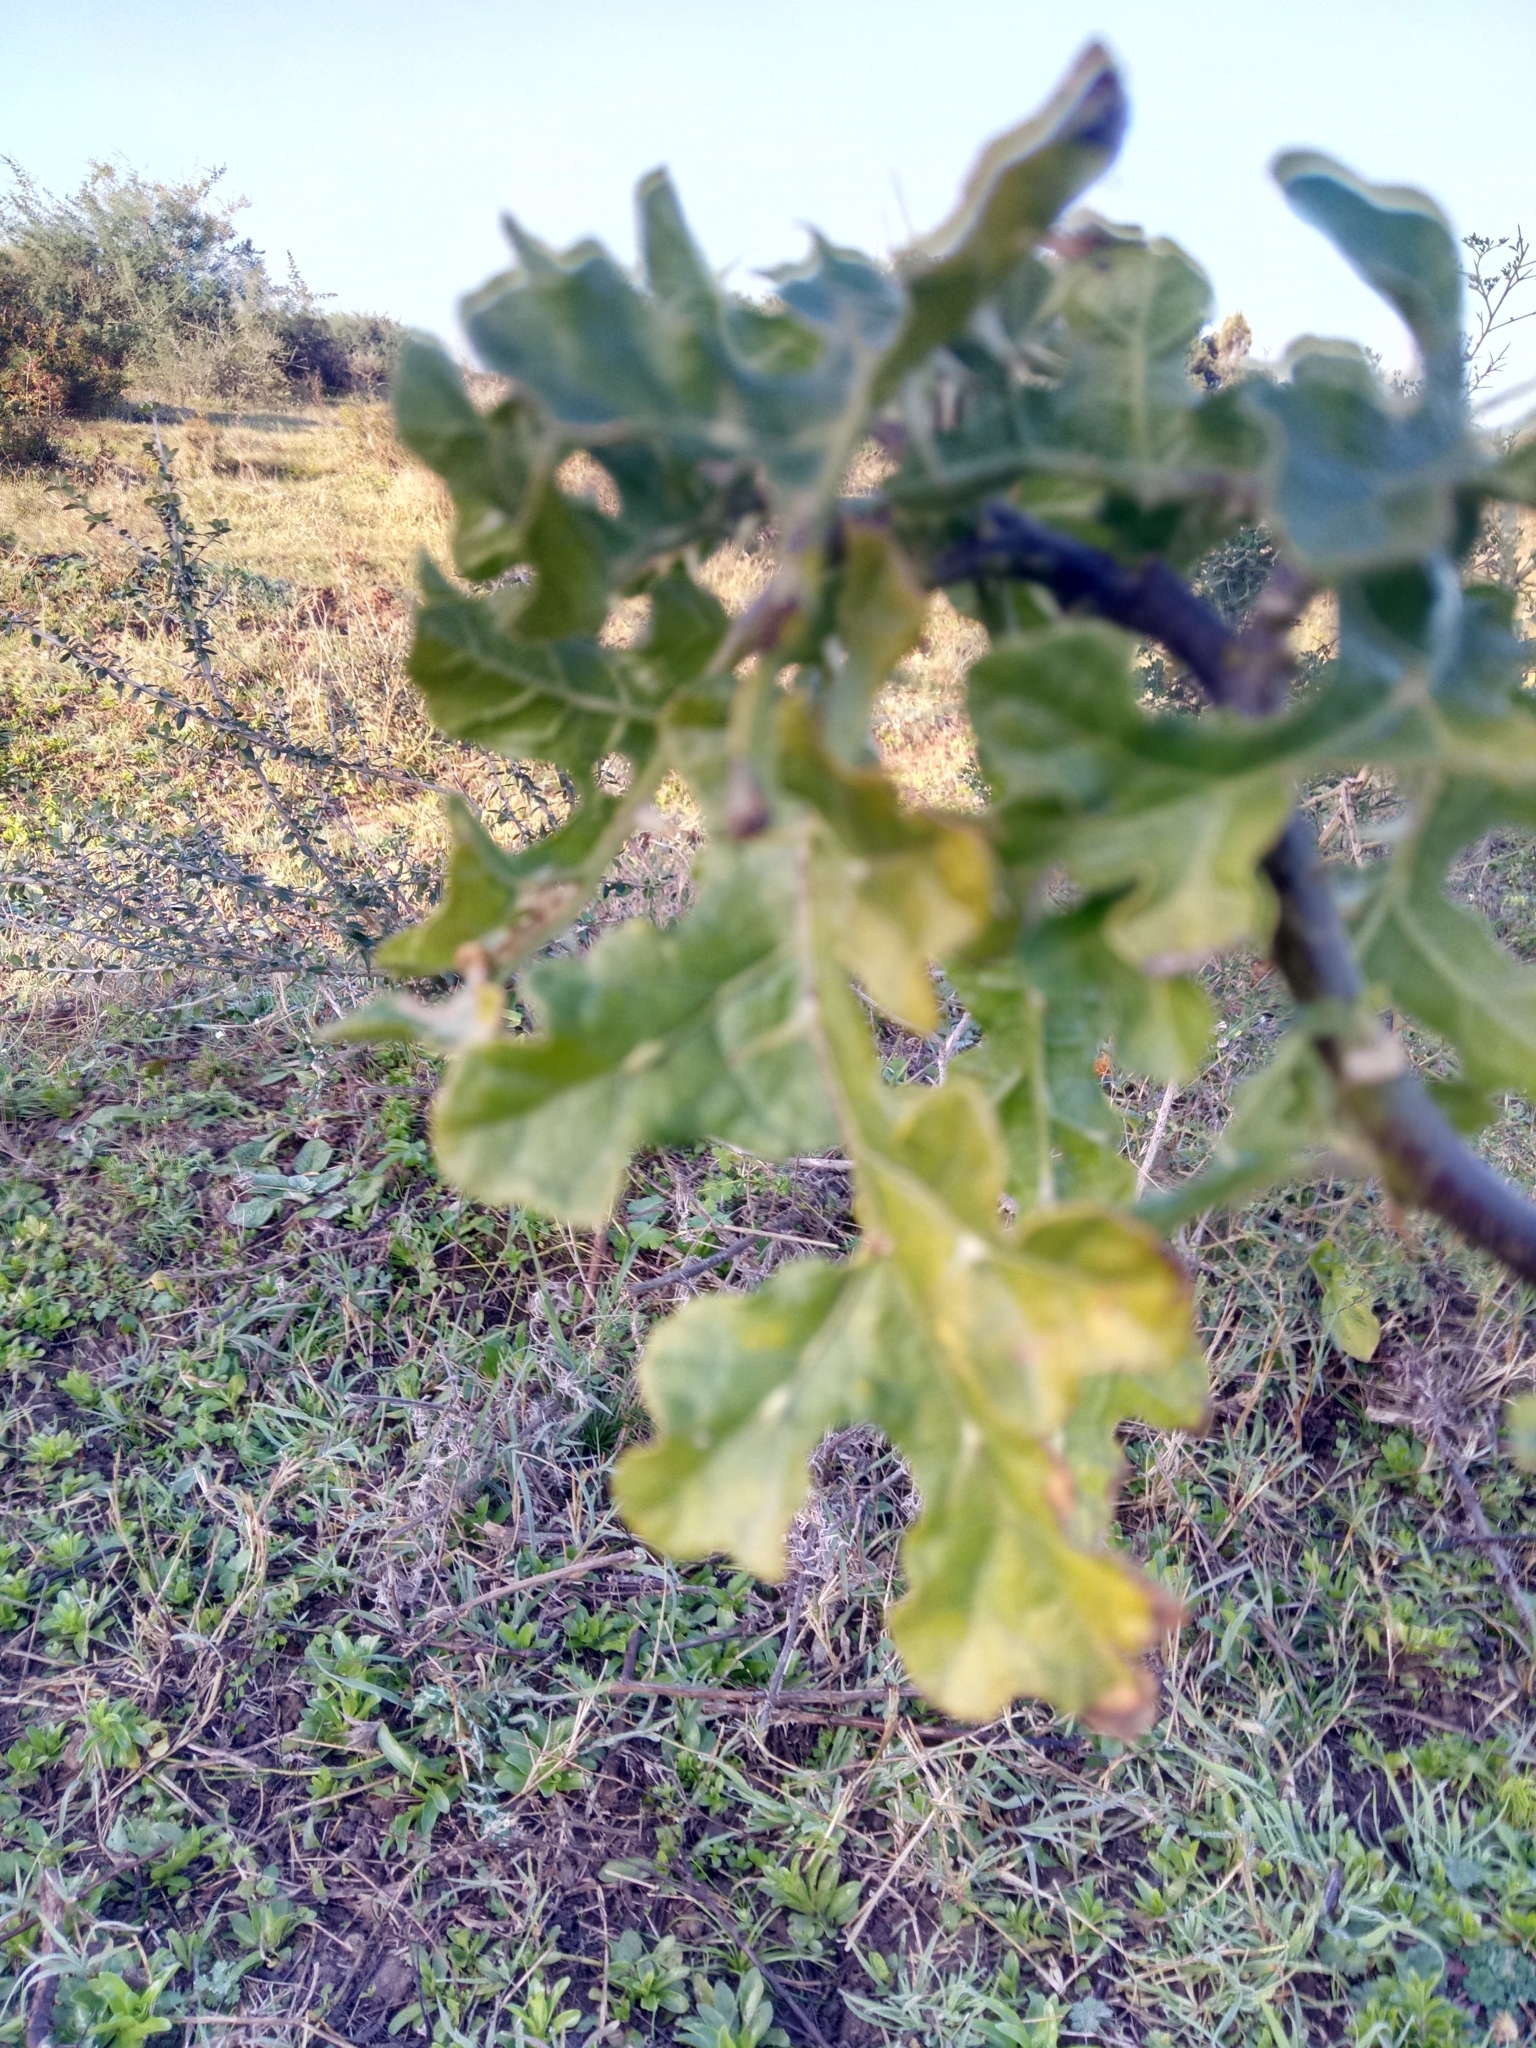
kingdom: Plantae
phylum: Tracheophyta
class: Magnoliopsida
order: Solanales
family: Solanaceae
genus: Solanum
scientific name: Solanum linnaeanum
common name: Nightshade
